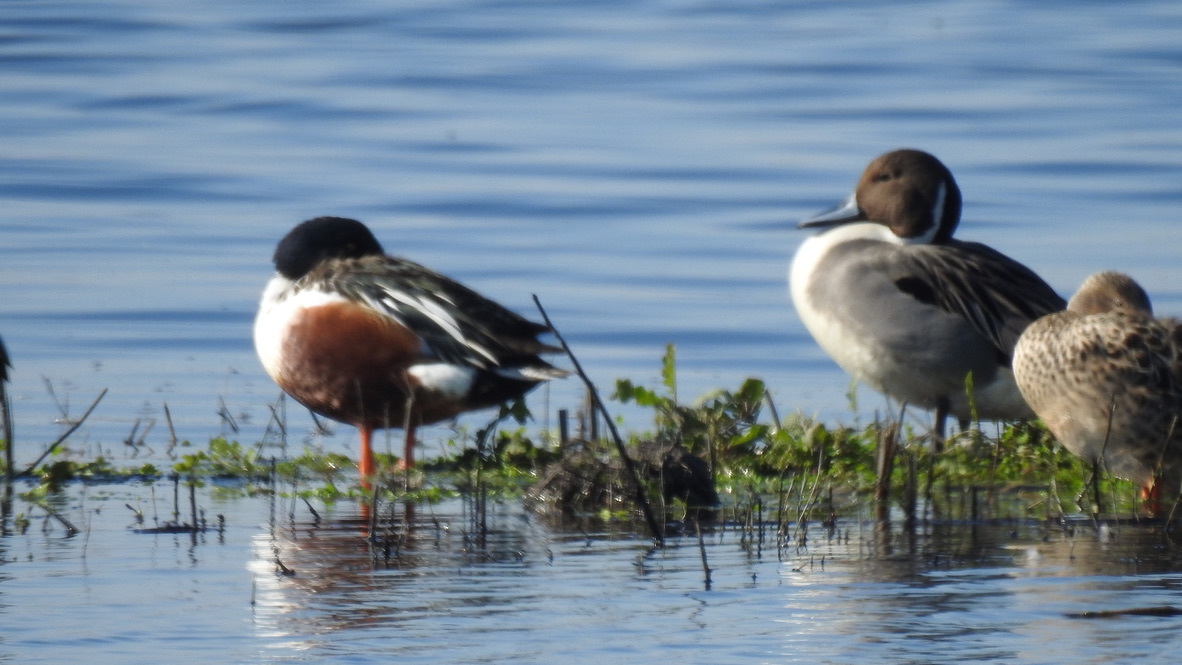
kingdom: Animalia
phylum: Chordata
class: Aves
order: Anseriformes
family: Anatidae
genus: Spatula
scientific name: Spatula clypeata
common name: Northern shoveler
